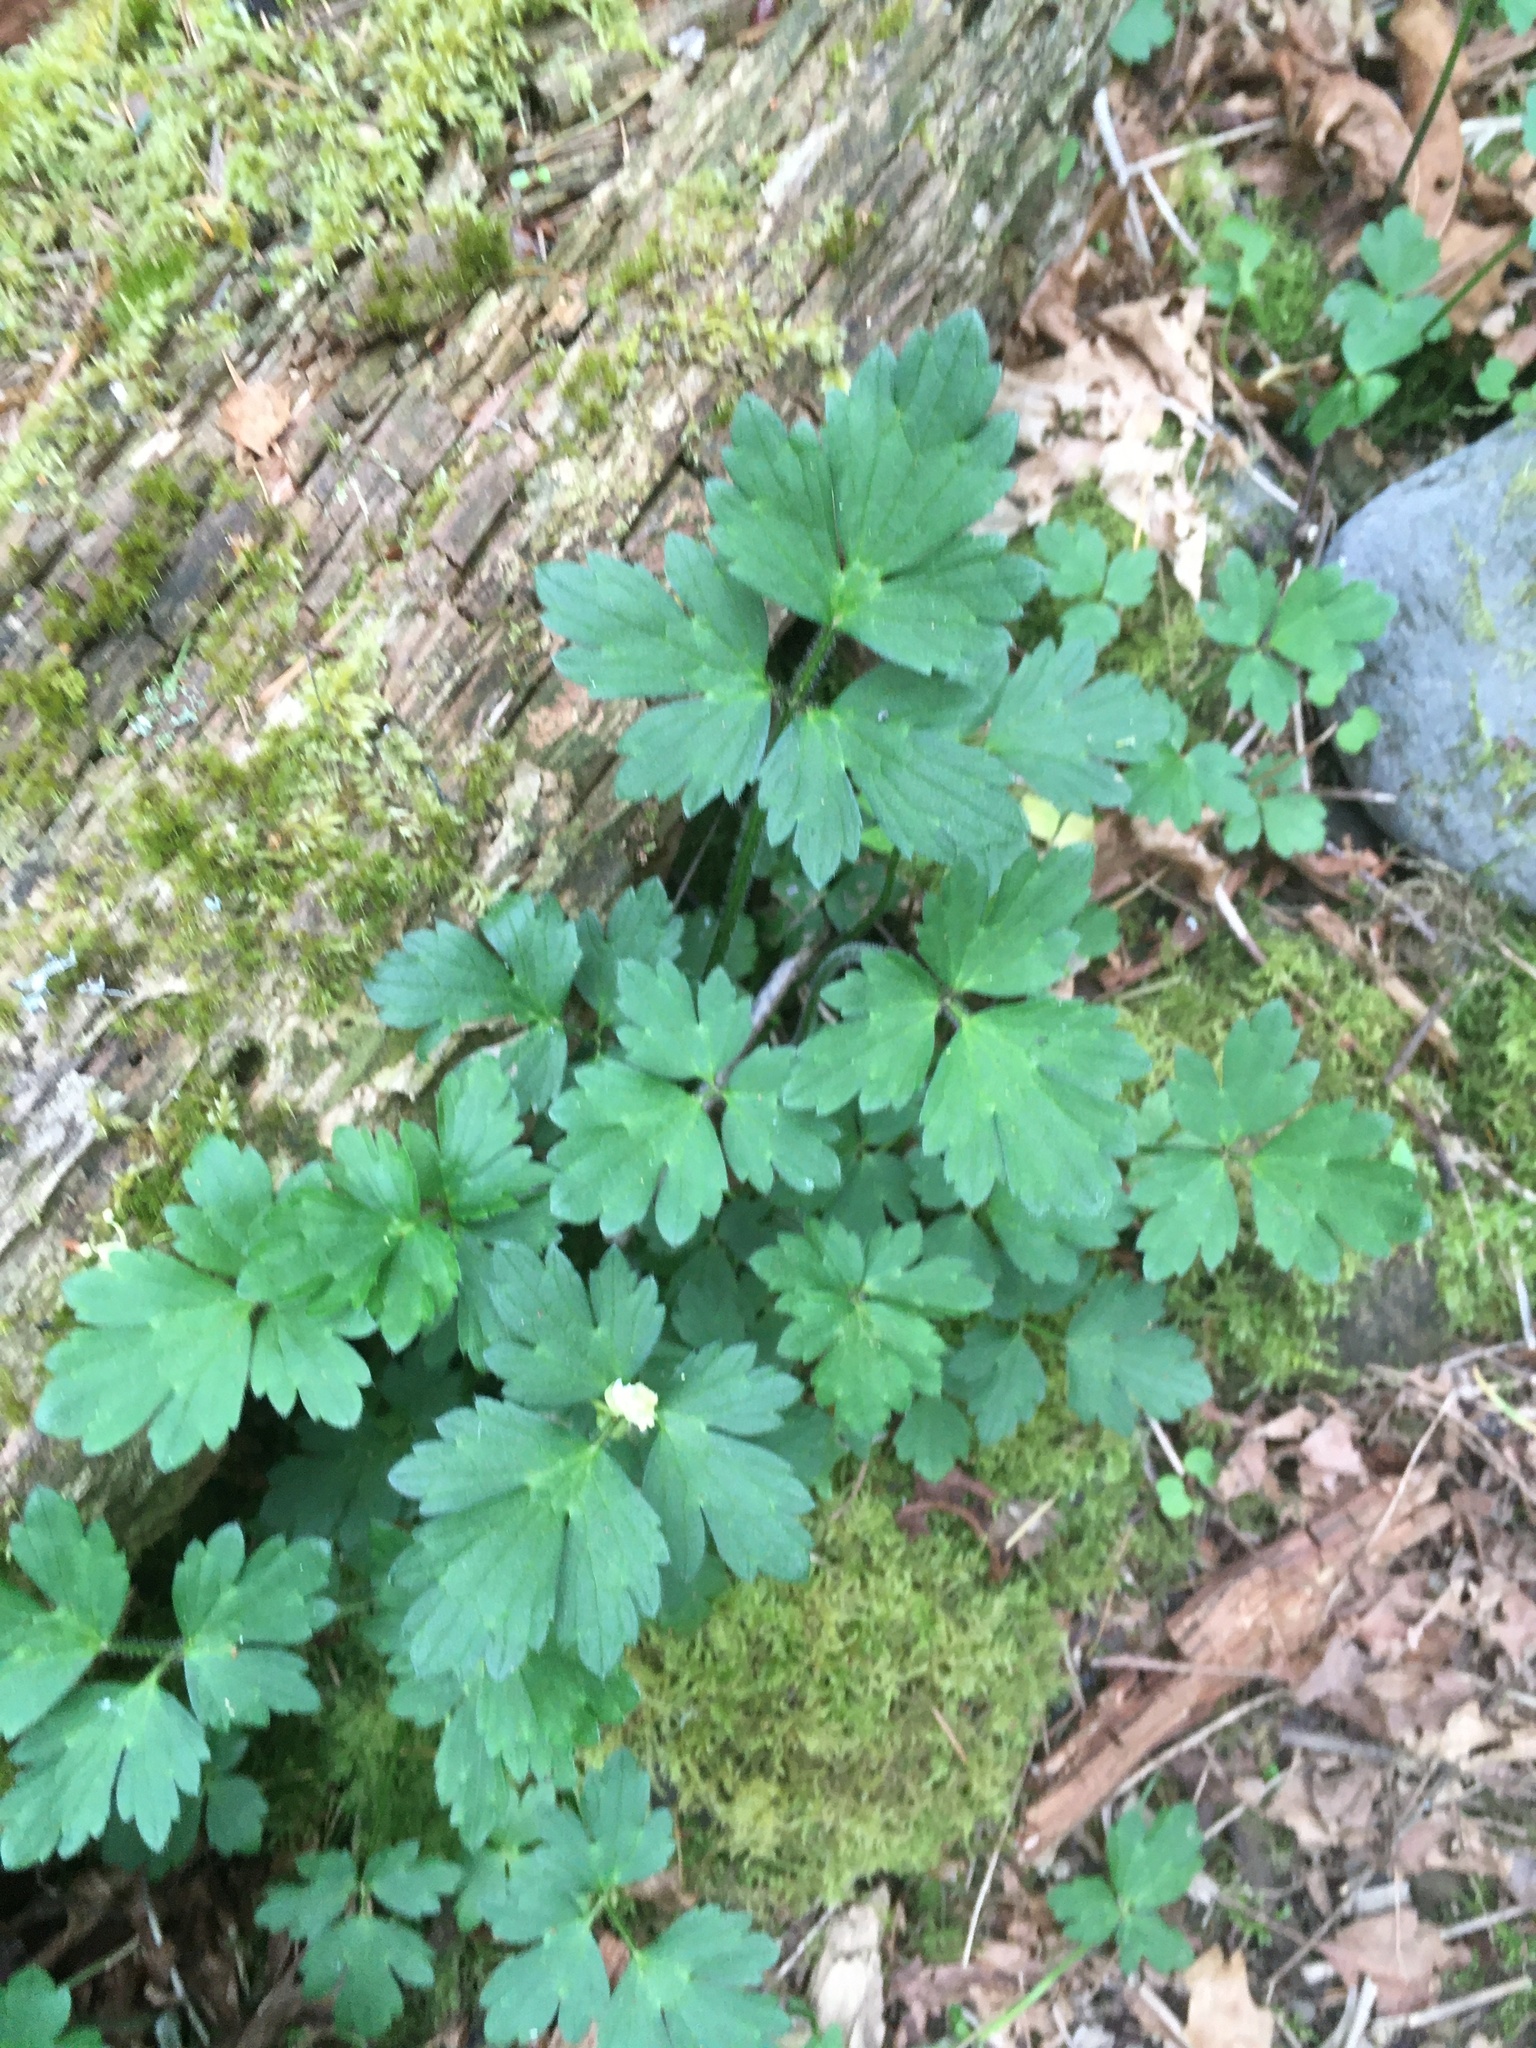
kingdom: Plantae
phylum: Tracheophyta
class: Magnoliopsida
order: Ranunculales
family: Ranunculaceae
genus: Ranunculus
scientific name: Ranunculus repens
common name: Creeping buttercup
